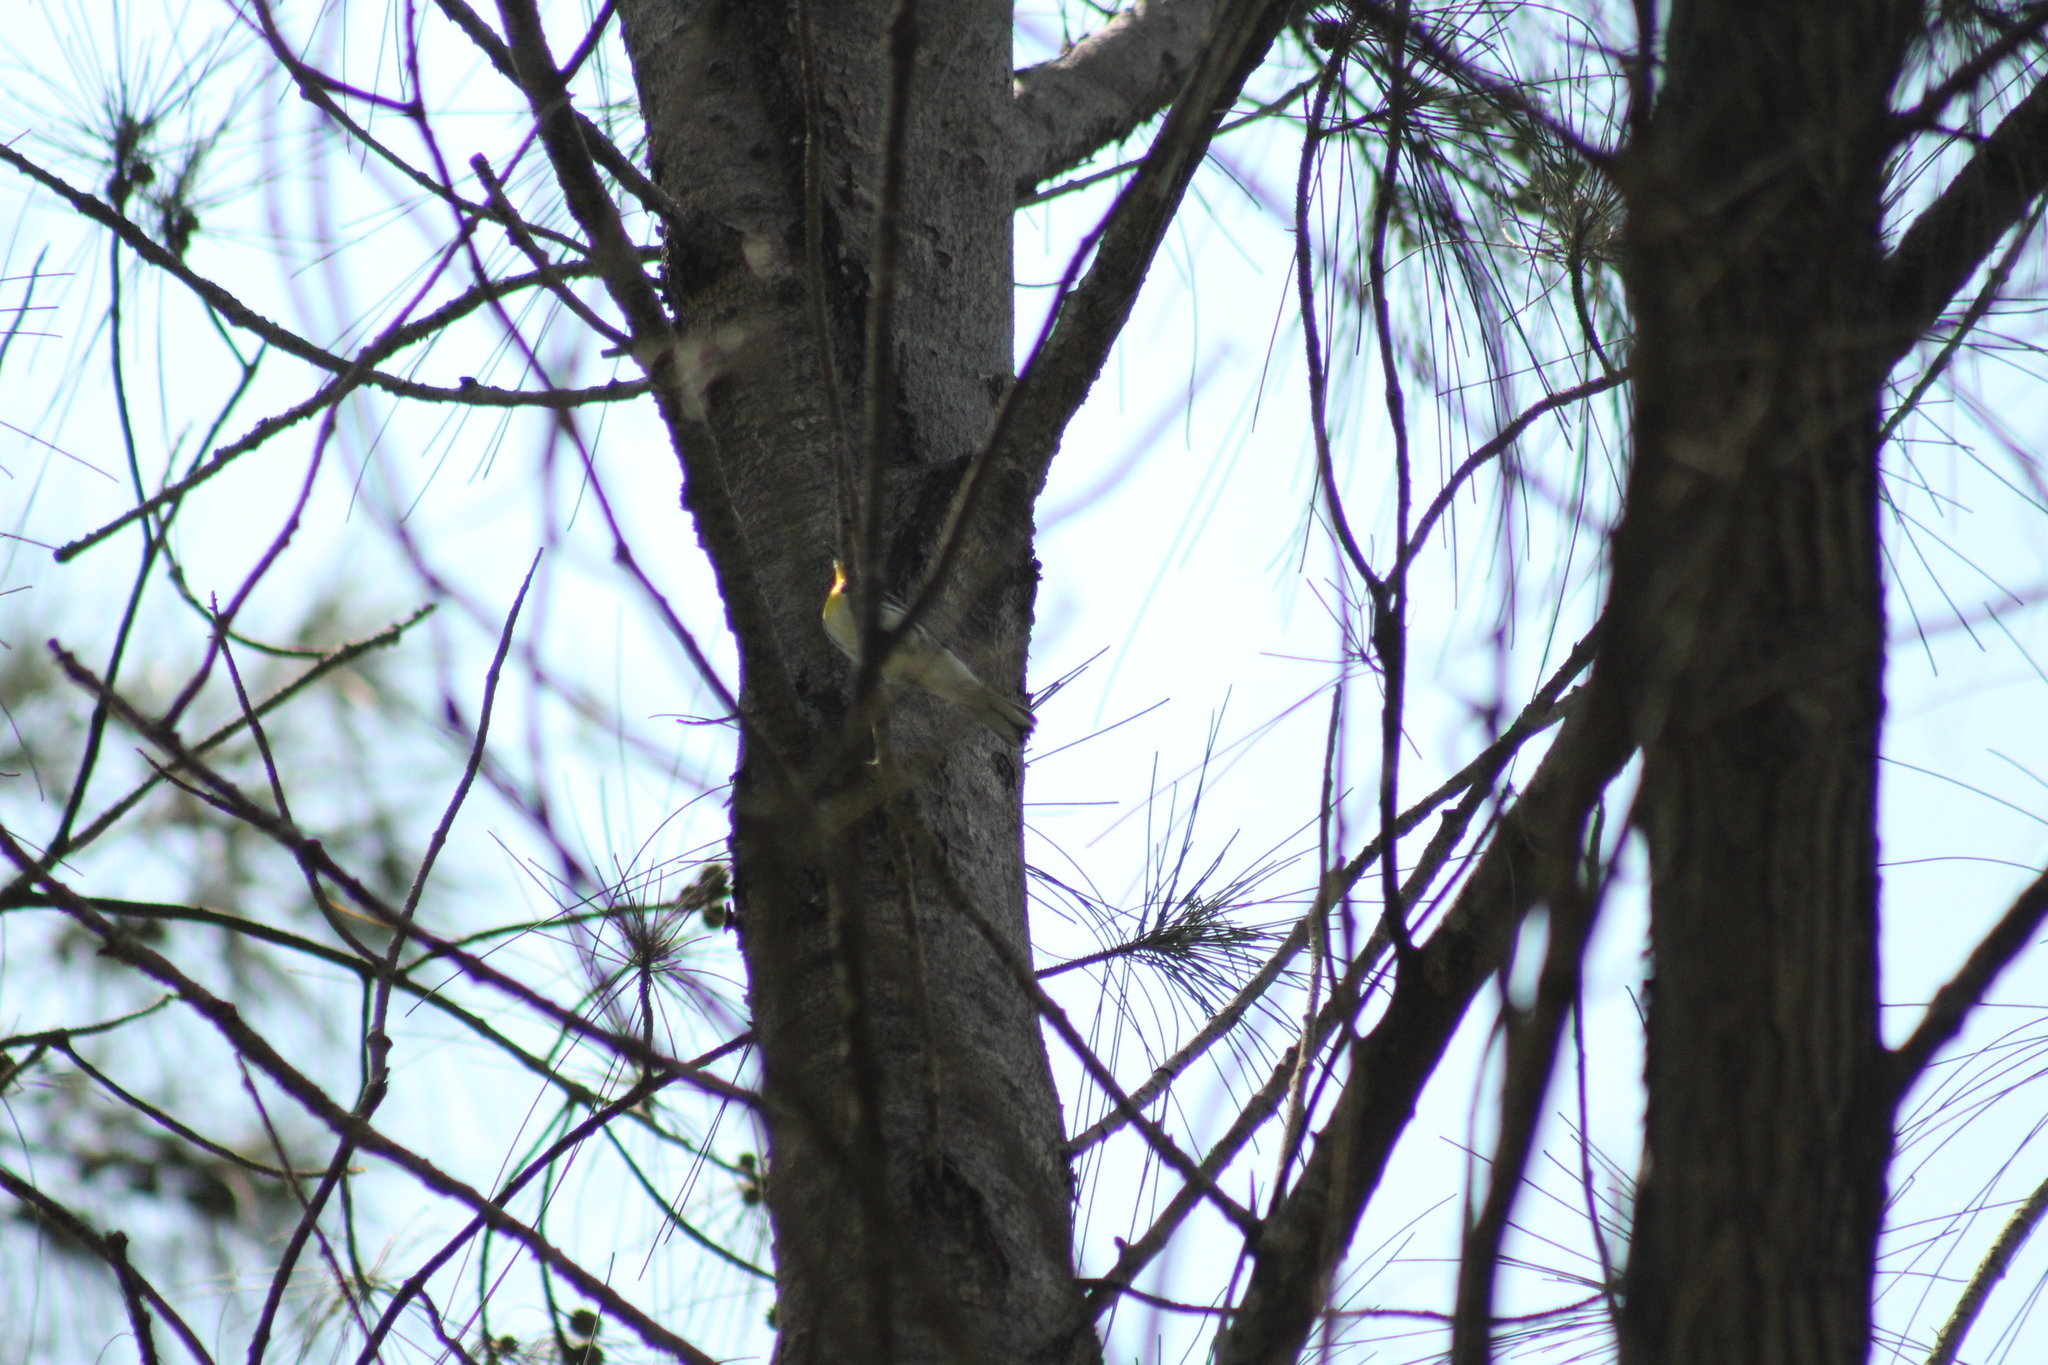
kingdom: Animalia
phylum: Chordata
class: Aves
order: Passeriformes
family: Parulidae
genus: Setophaga
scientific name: Setophaga dominica
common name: Yellow-throated warbler
